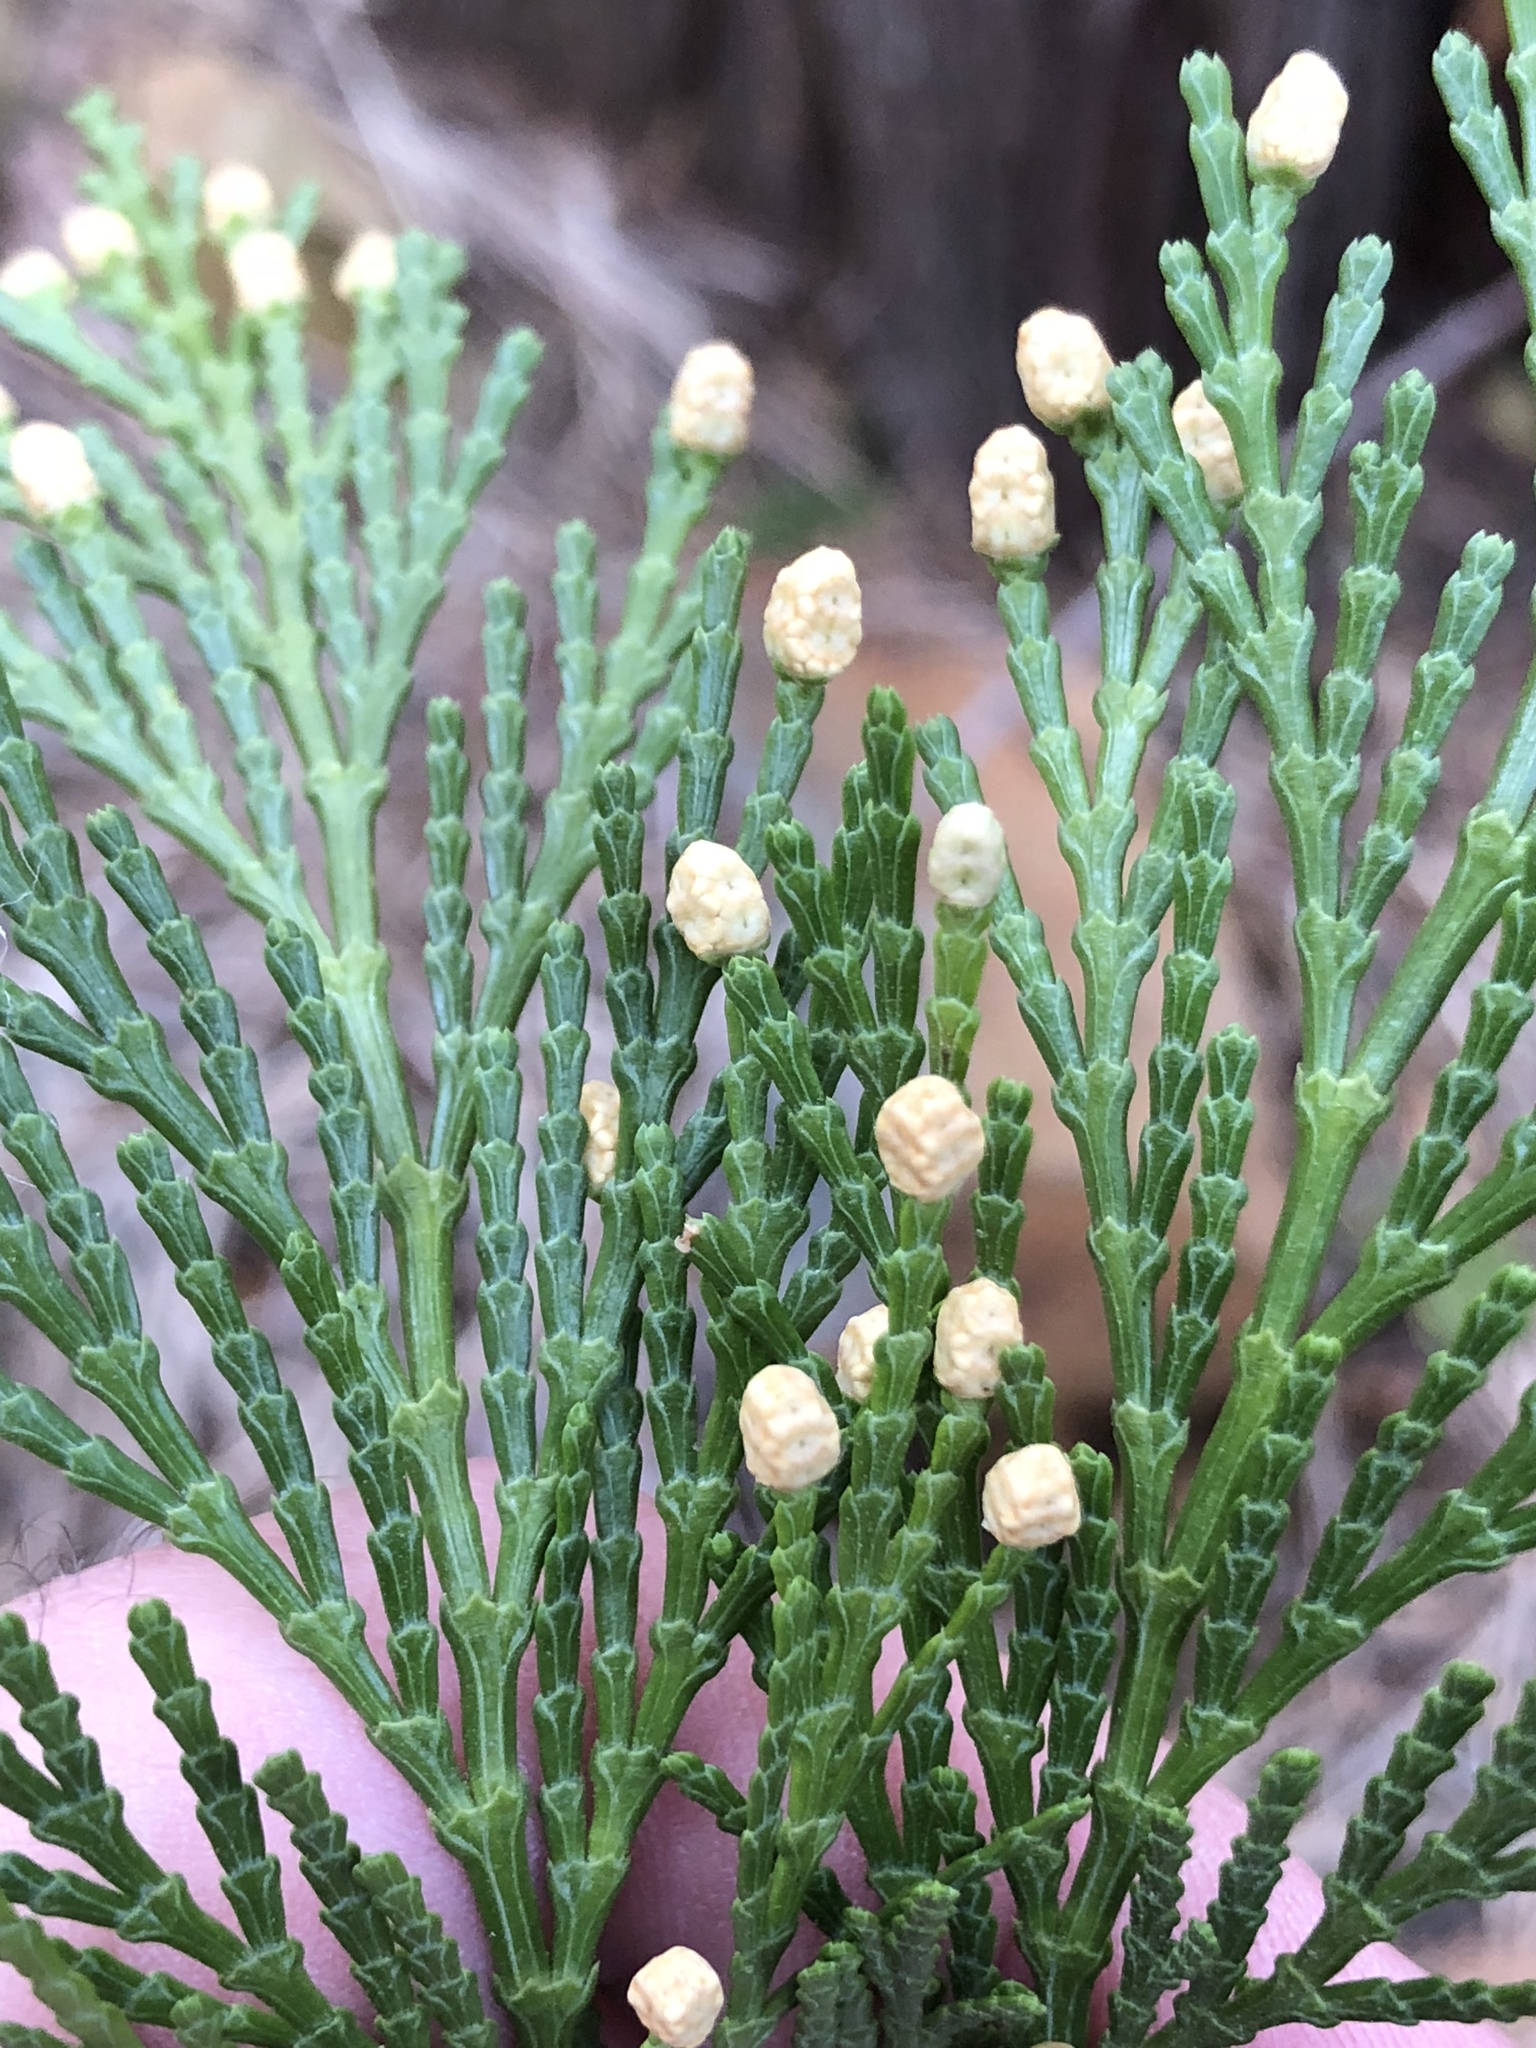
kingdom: Plantae
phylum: Tracheophyta
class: Pinopsida
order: Pinales
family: Cupressaceae
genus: Calocedrus
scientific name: Calocedrus decurrens
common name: Californian incense-cedar
